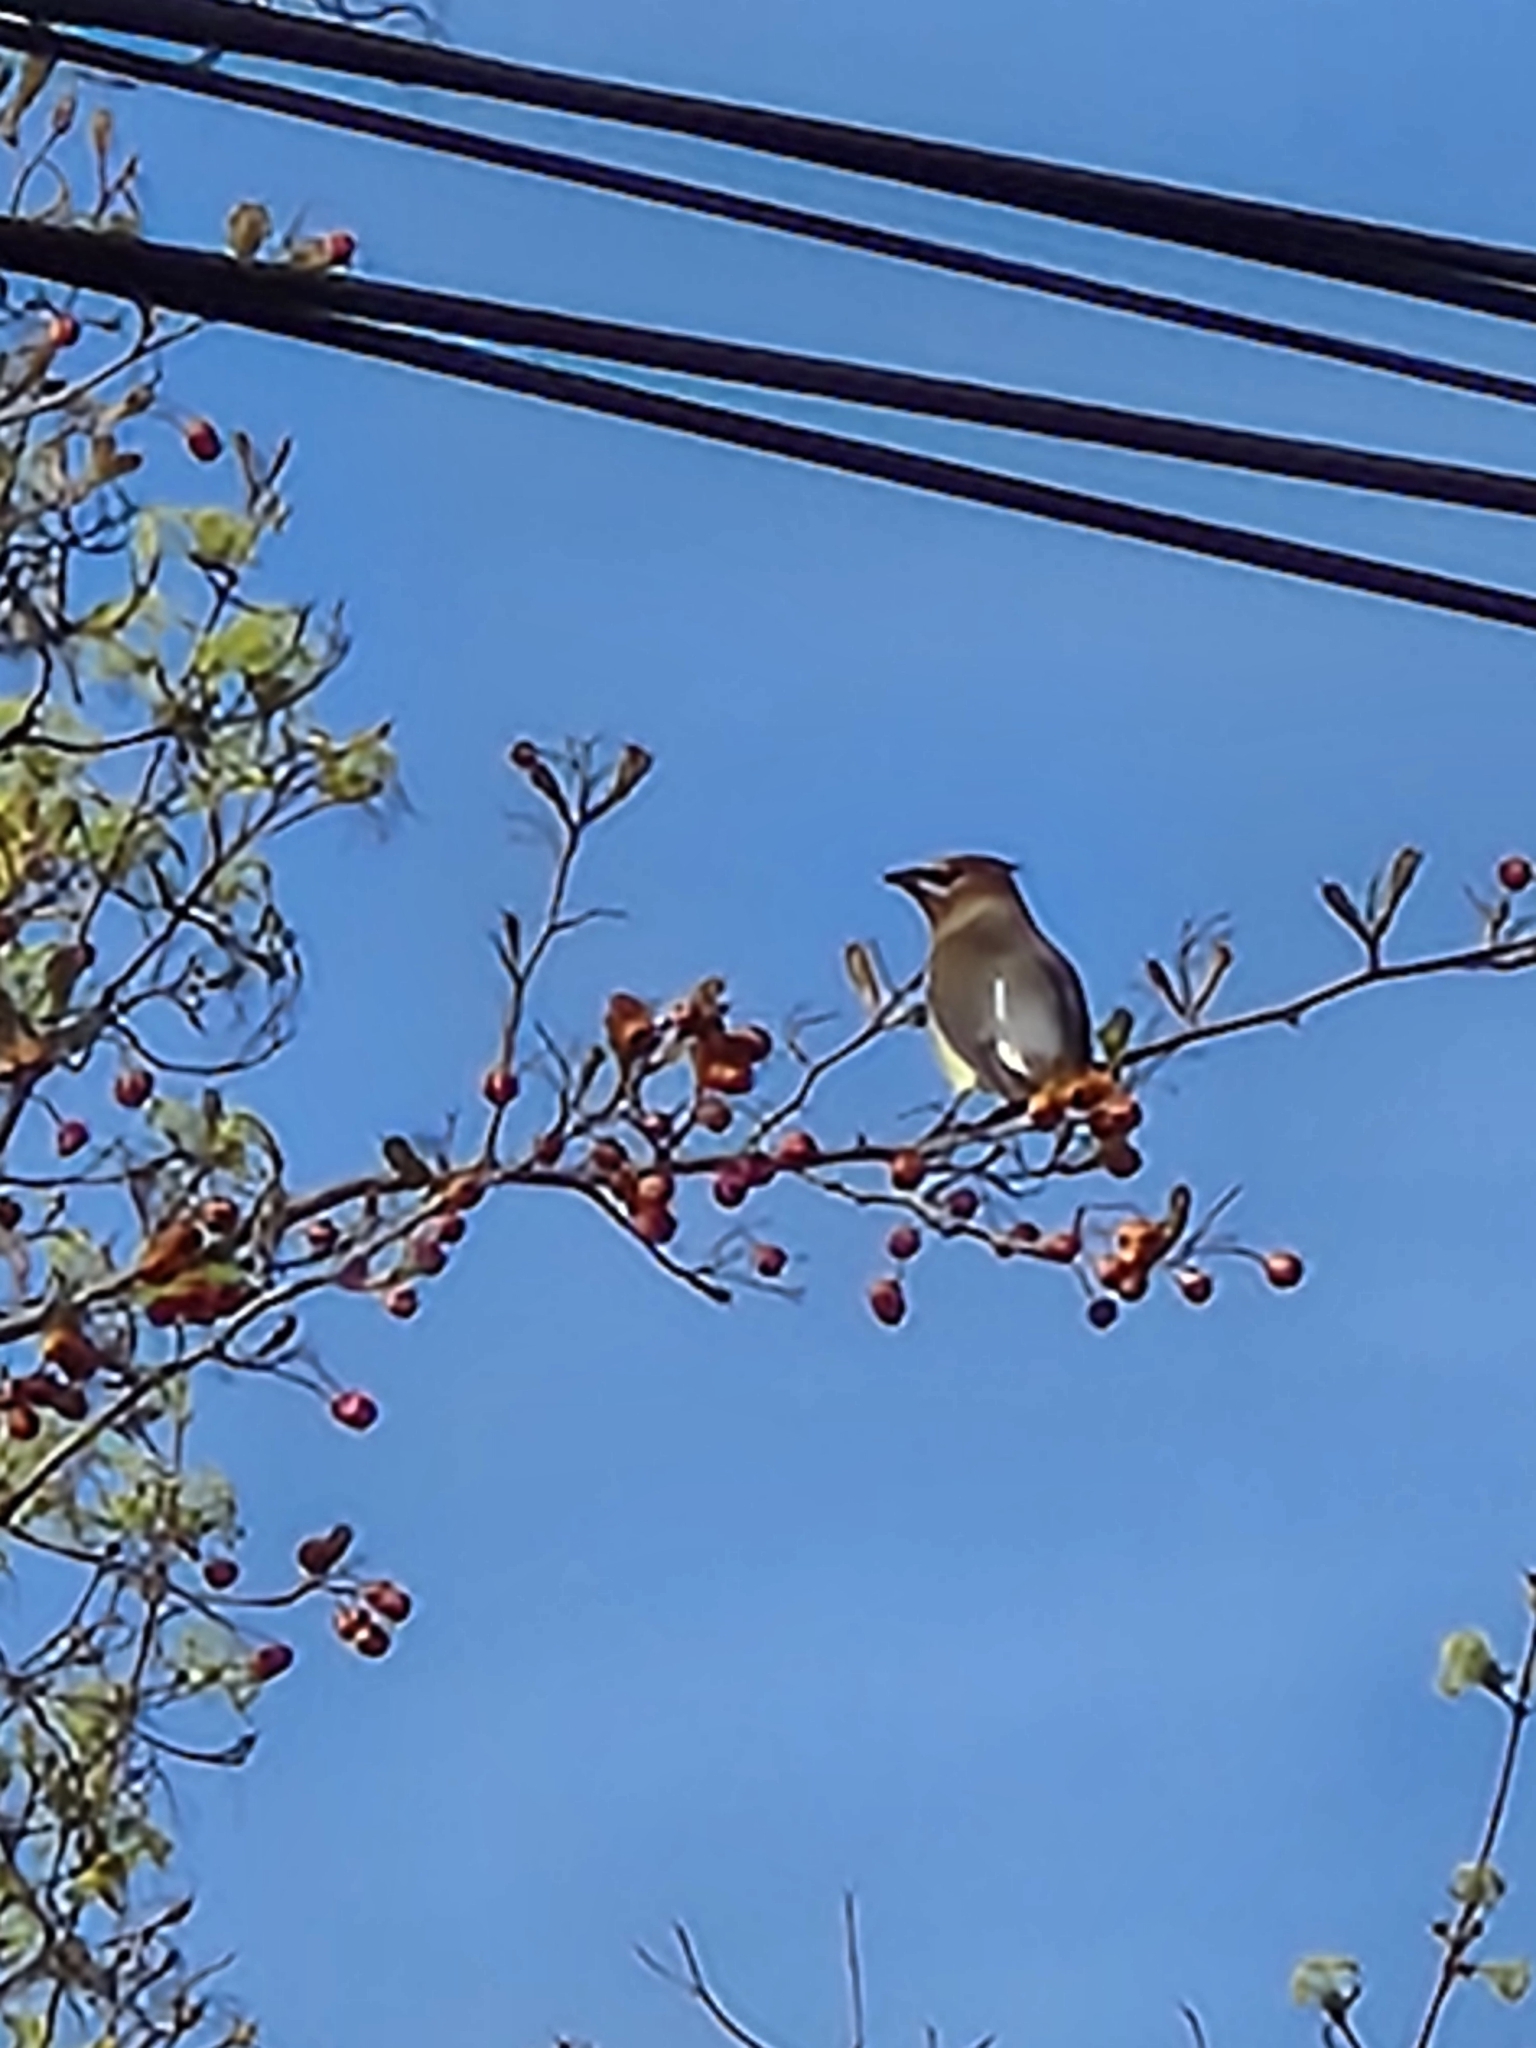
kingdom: Animalia
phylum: Chordata
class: Aves
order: Passeriformes
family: Bombycillidae
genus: Bombycilla
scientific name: Bombycilla cedrorum
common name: Cedar waxwing
